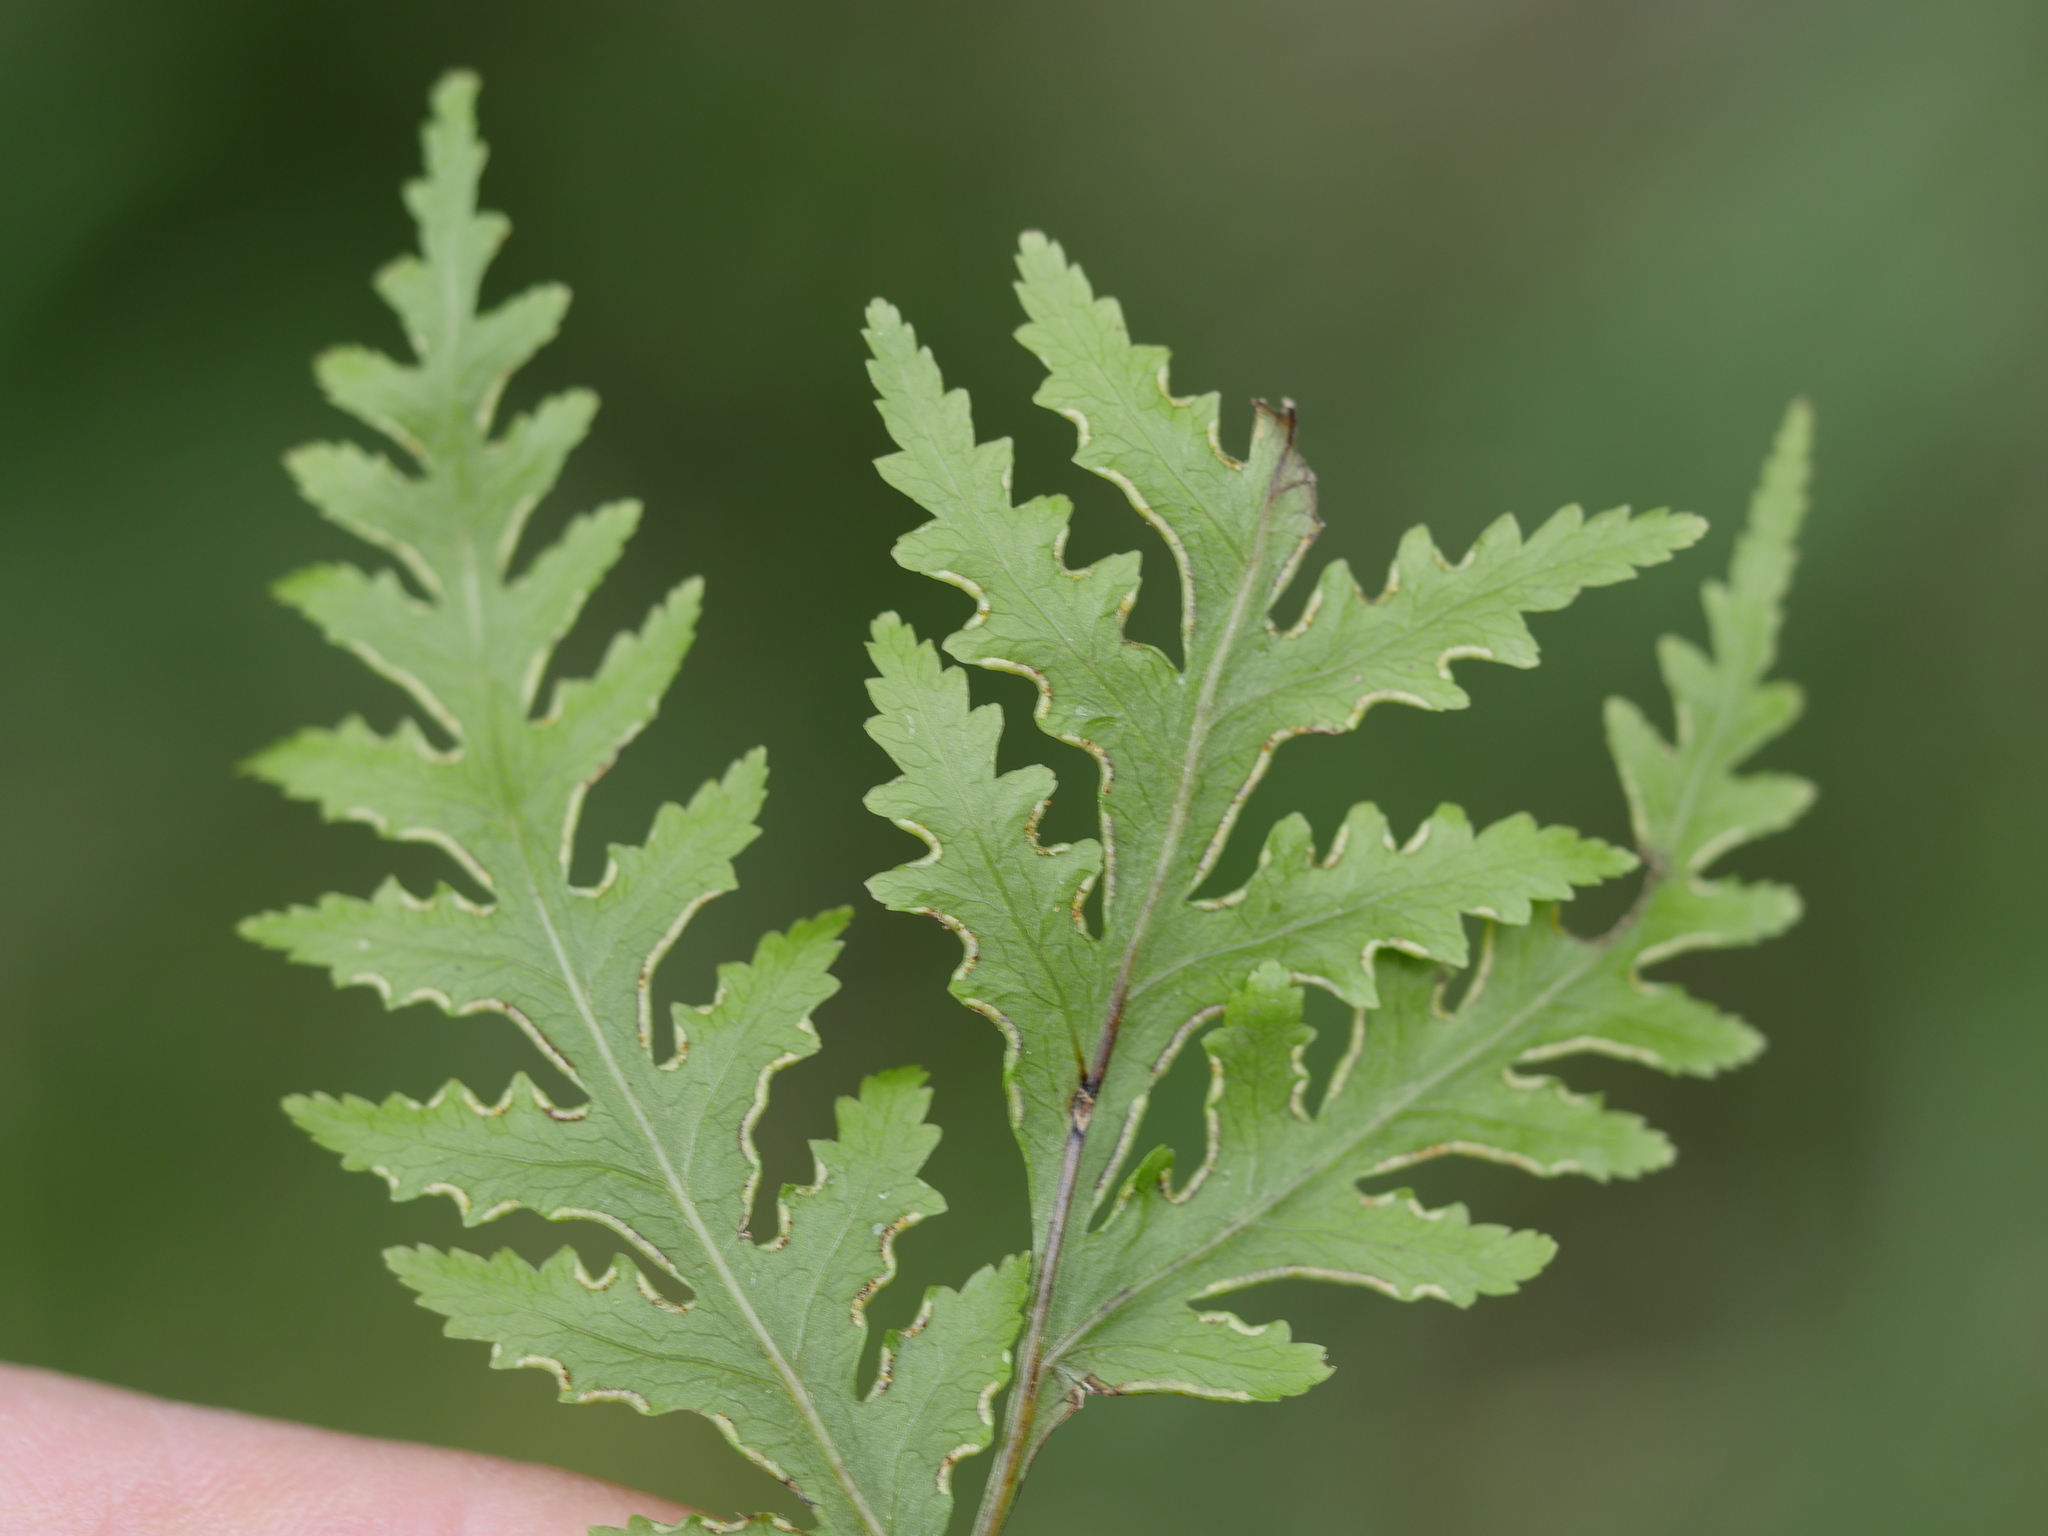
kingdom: Plantae
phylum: Tracheophyta
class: Polypodiopsida
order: Polypodiales
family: Pteridaceae
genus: Pteris
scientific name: Pteris macilenta
